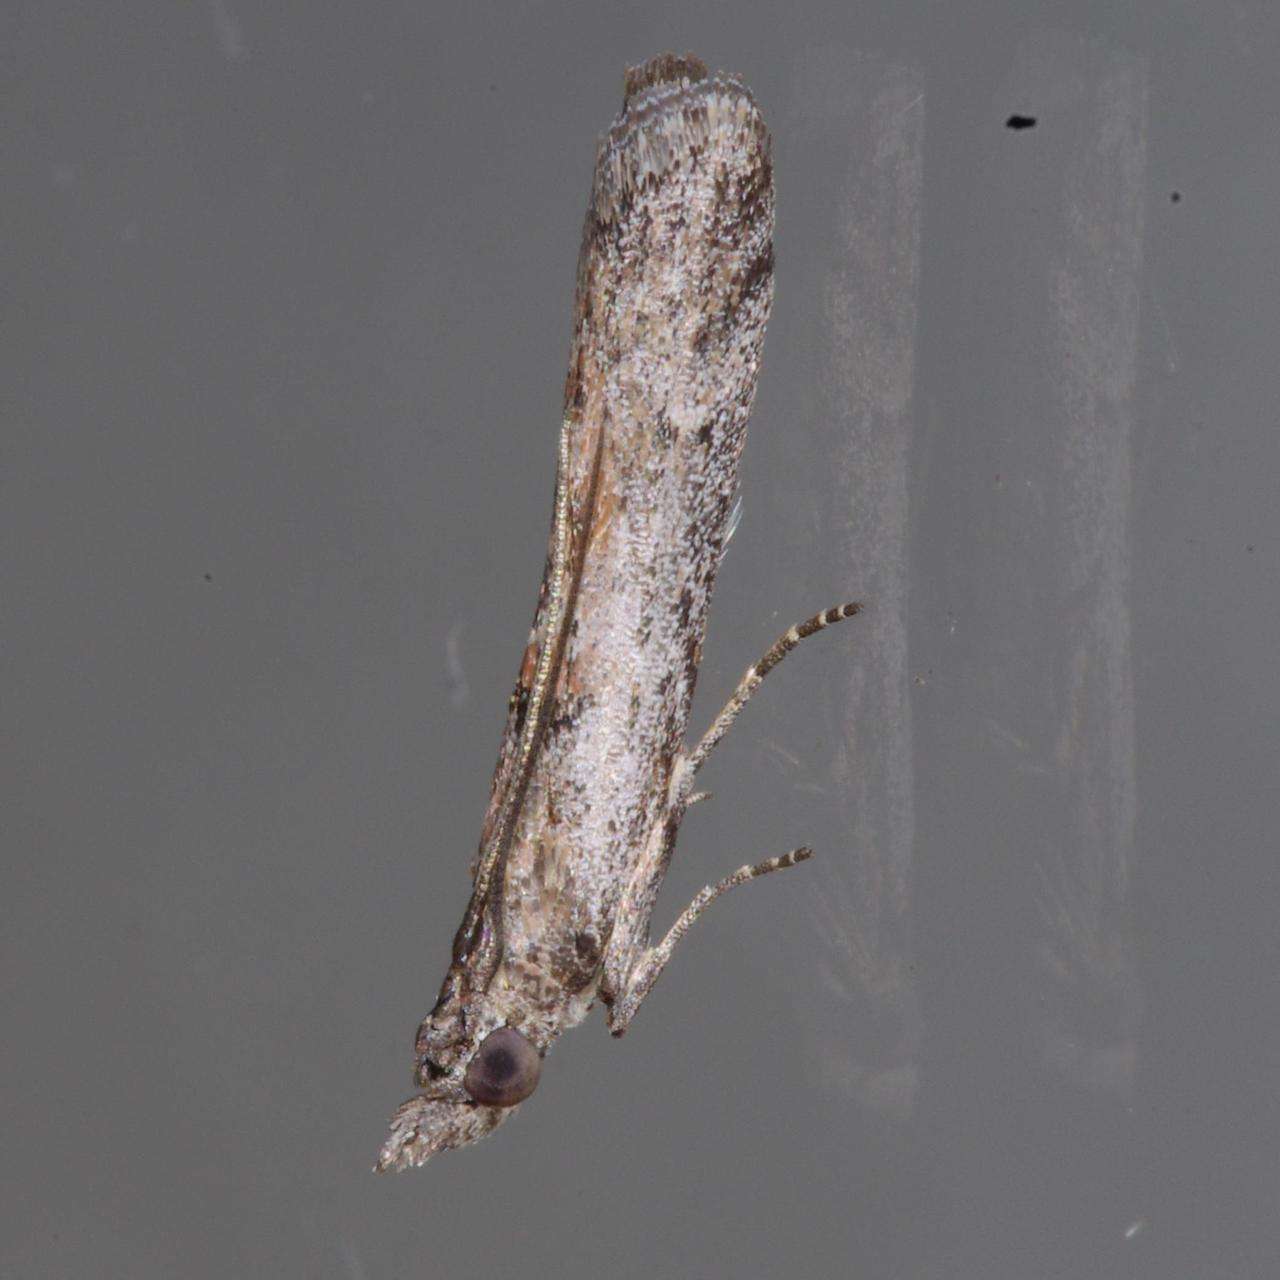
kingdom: Animalia
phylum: Arthropoda
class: Insecta
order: Lepidoptera
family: Pyralidae
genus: Crocydopora
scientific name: Crocydopora cinigerella
